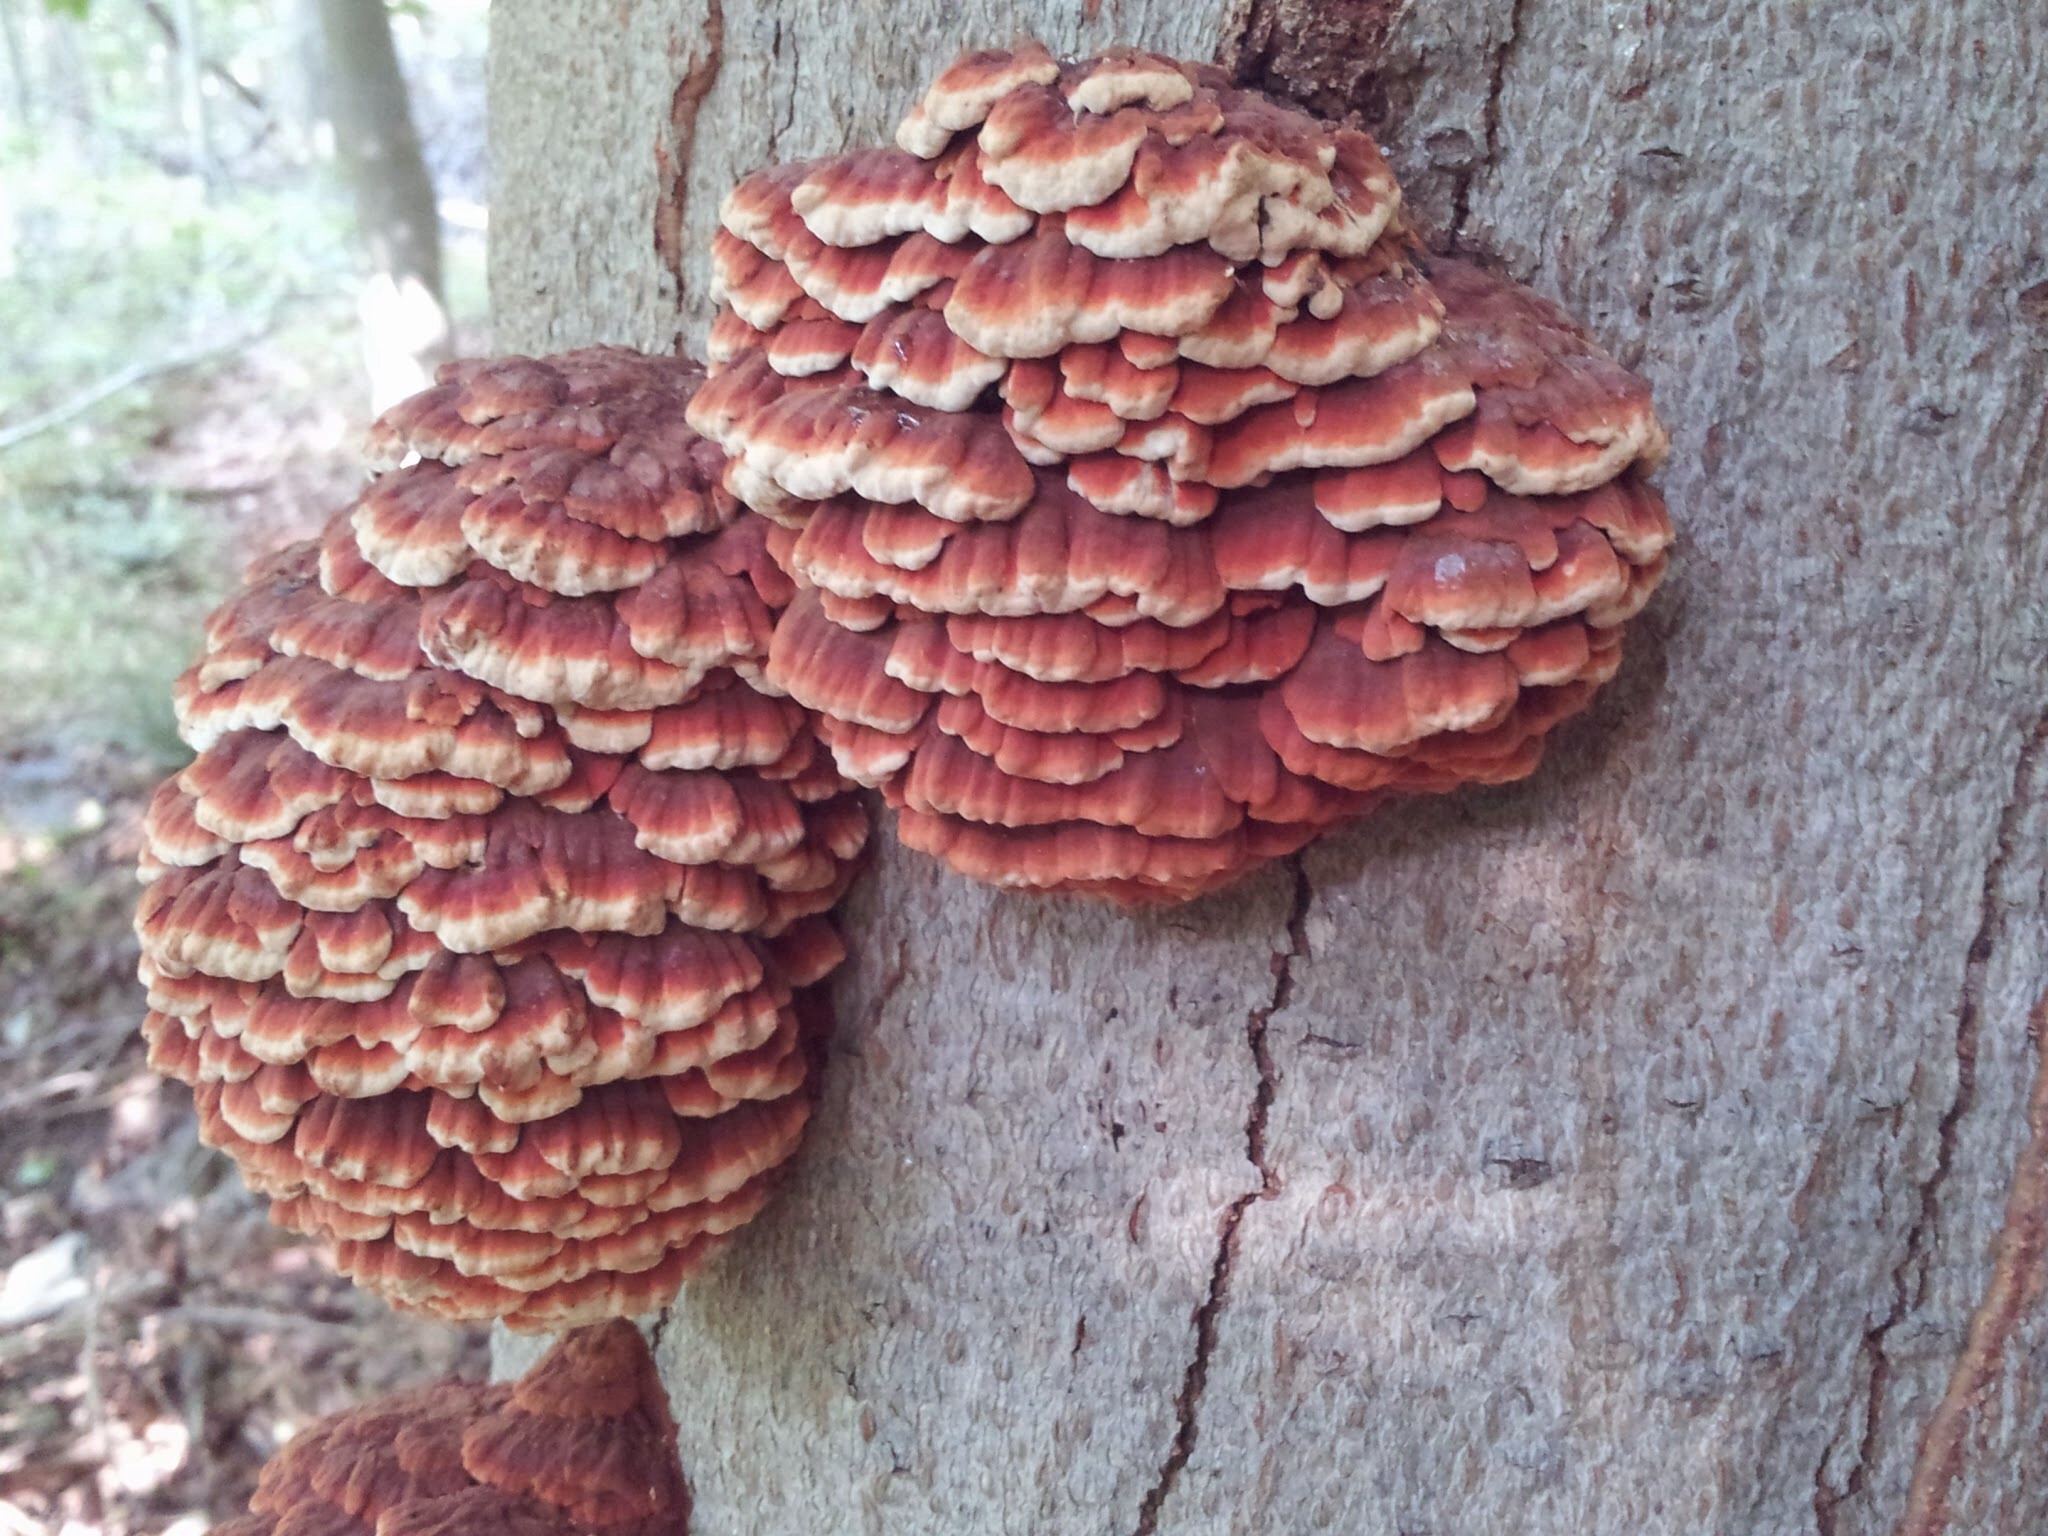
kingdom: Fungi
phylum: Basidiomycota
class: Agaricomycetes
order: Polyporales
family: Polyporaceae
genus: Globifomes
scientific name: Globifomes graveolens
